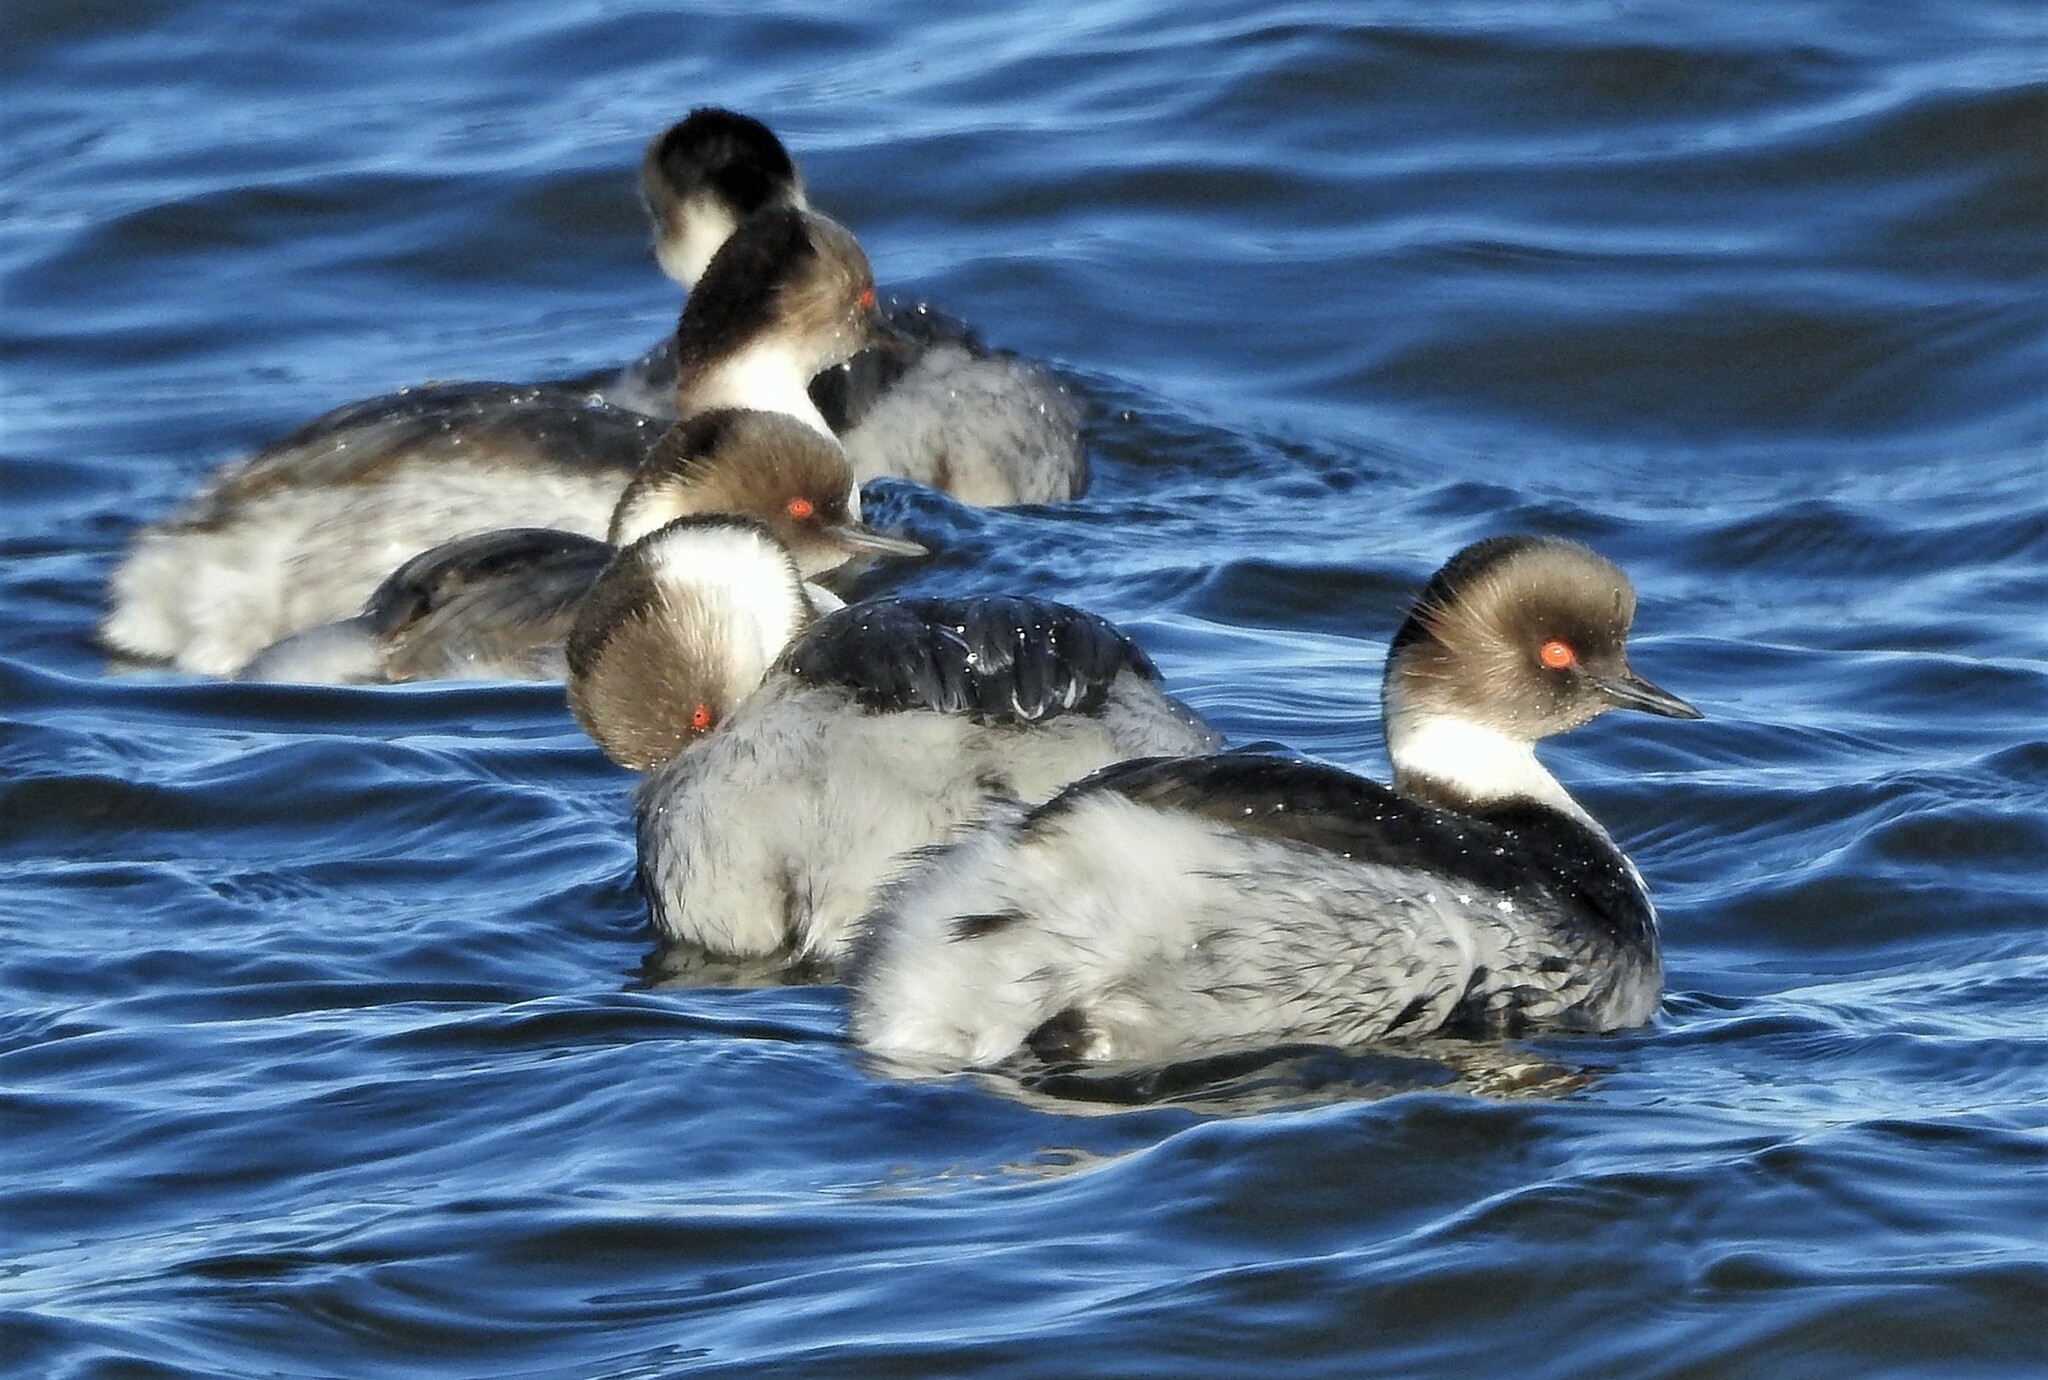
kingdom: Animalia
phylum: Chordata
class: Aves
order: Podicipediformes
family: Podicipedidae
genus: Podiceps
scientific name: Podiceps occipitalis
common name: Silvery grebe
